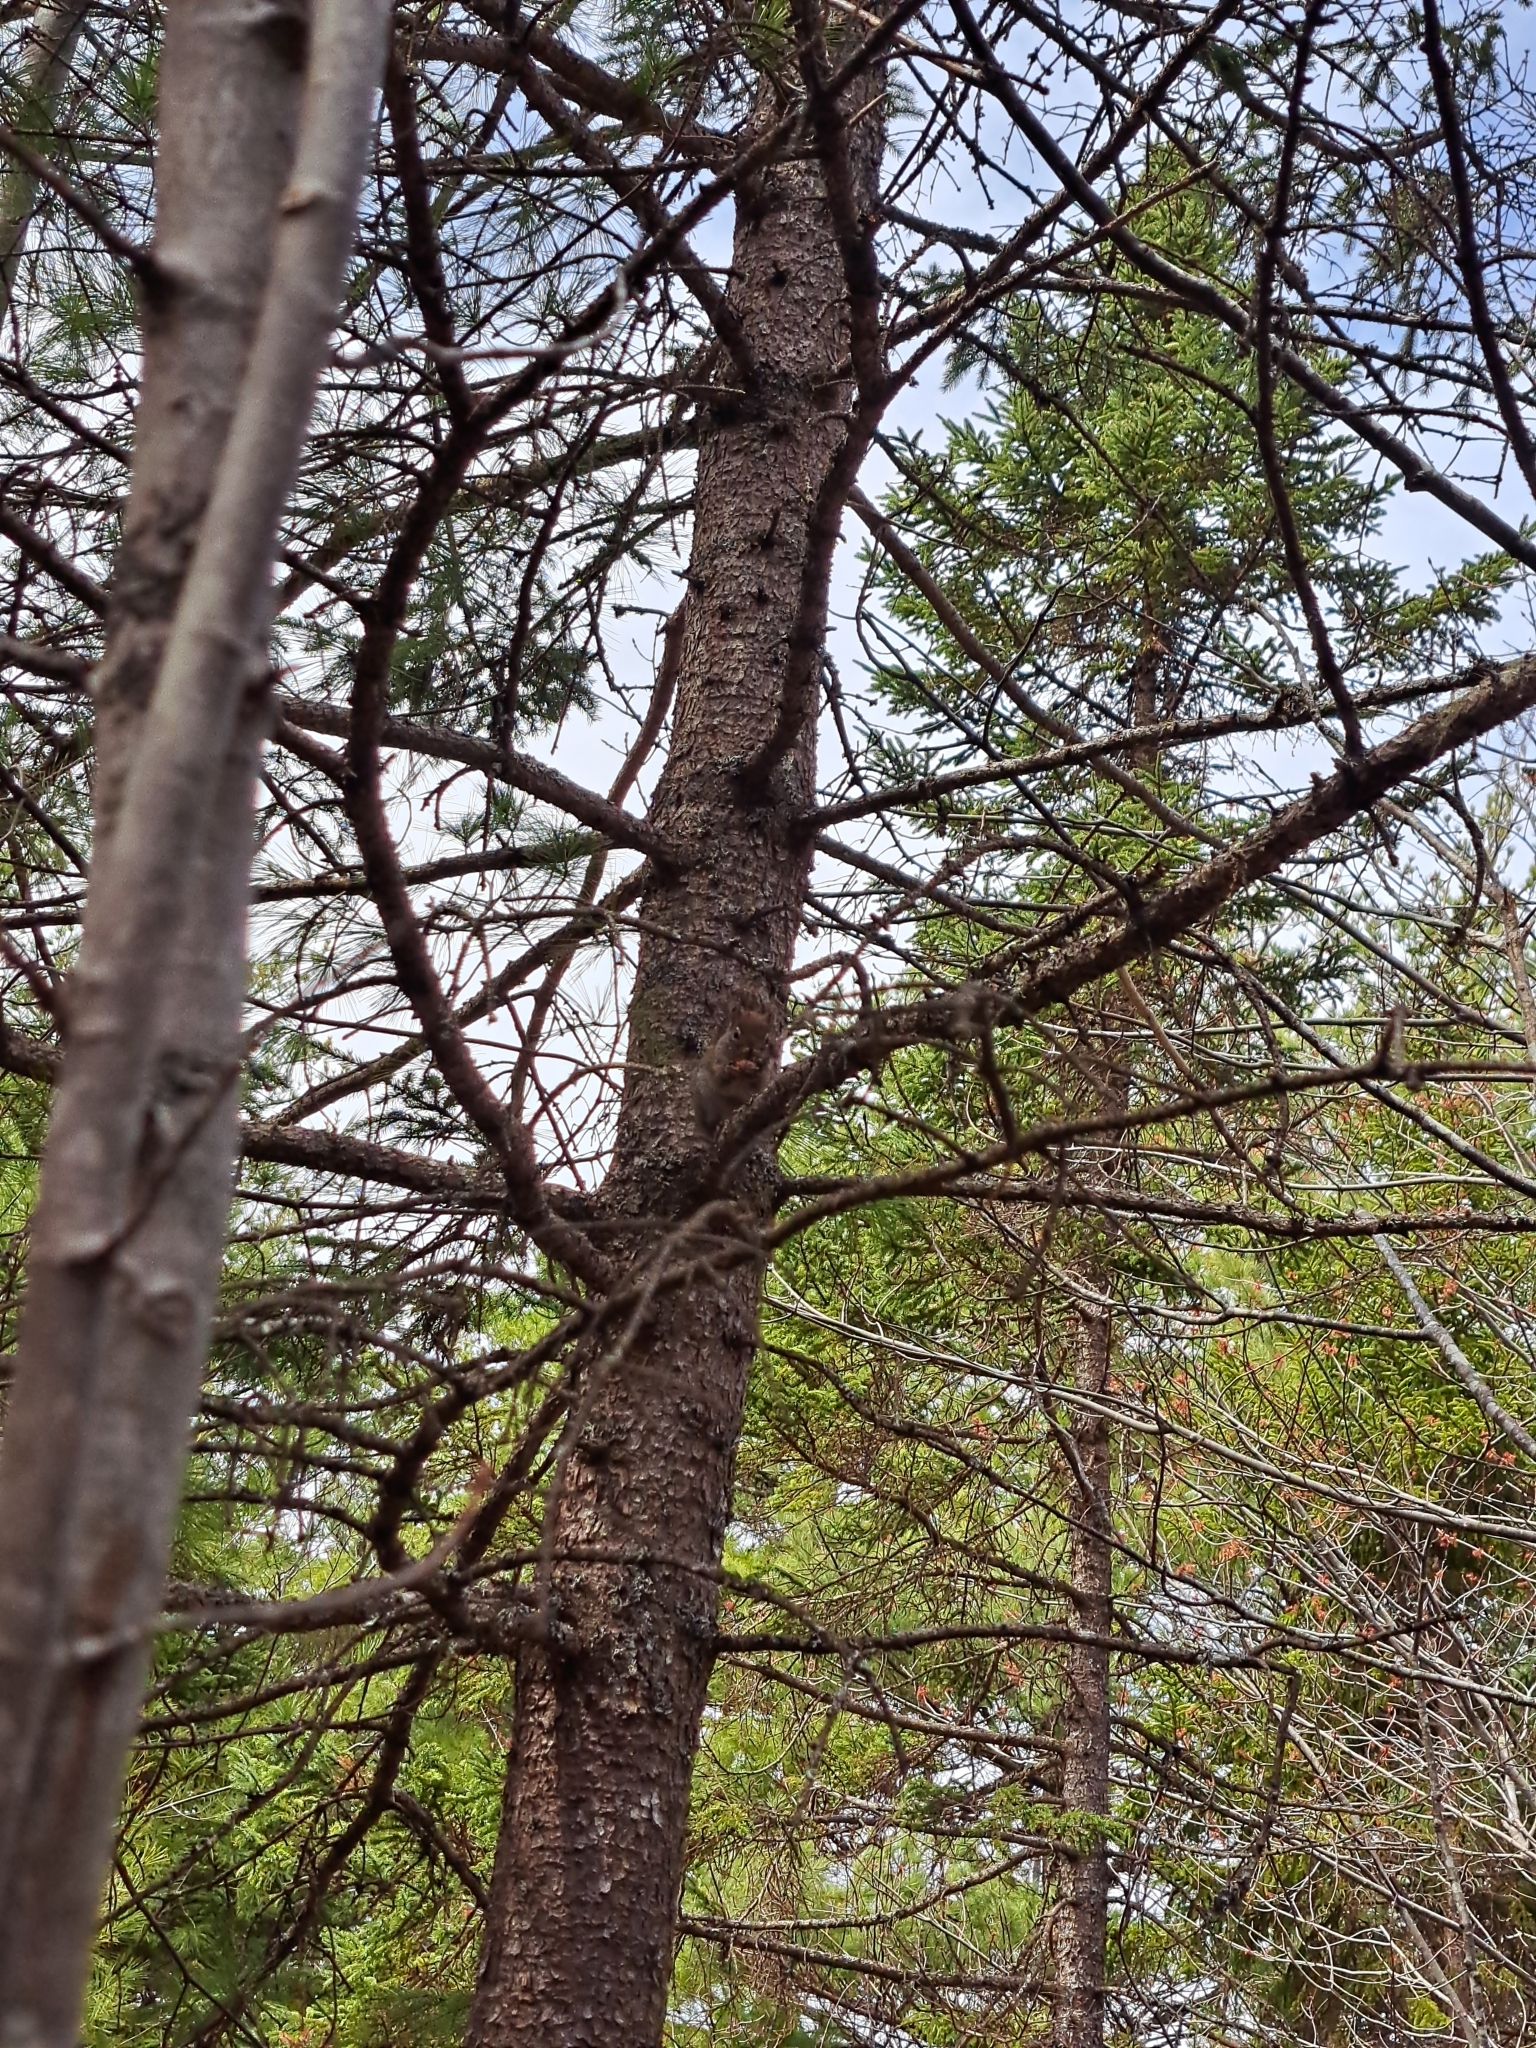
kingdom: Animalia
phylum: Chordata
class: Mammalia
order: Rodentia
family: Sciuridae
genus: Tamiasciurus
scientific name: Tamiasciurus hudsonicus
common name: Red squirrel
